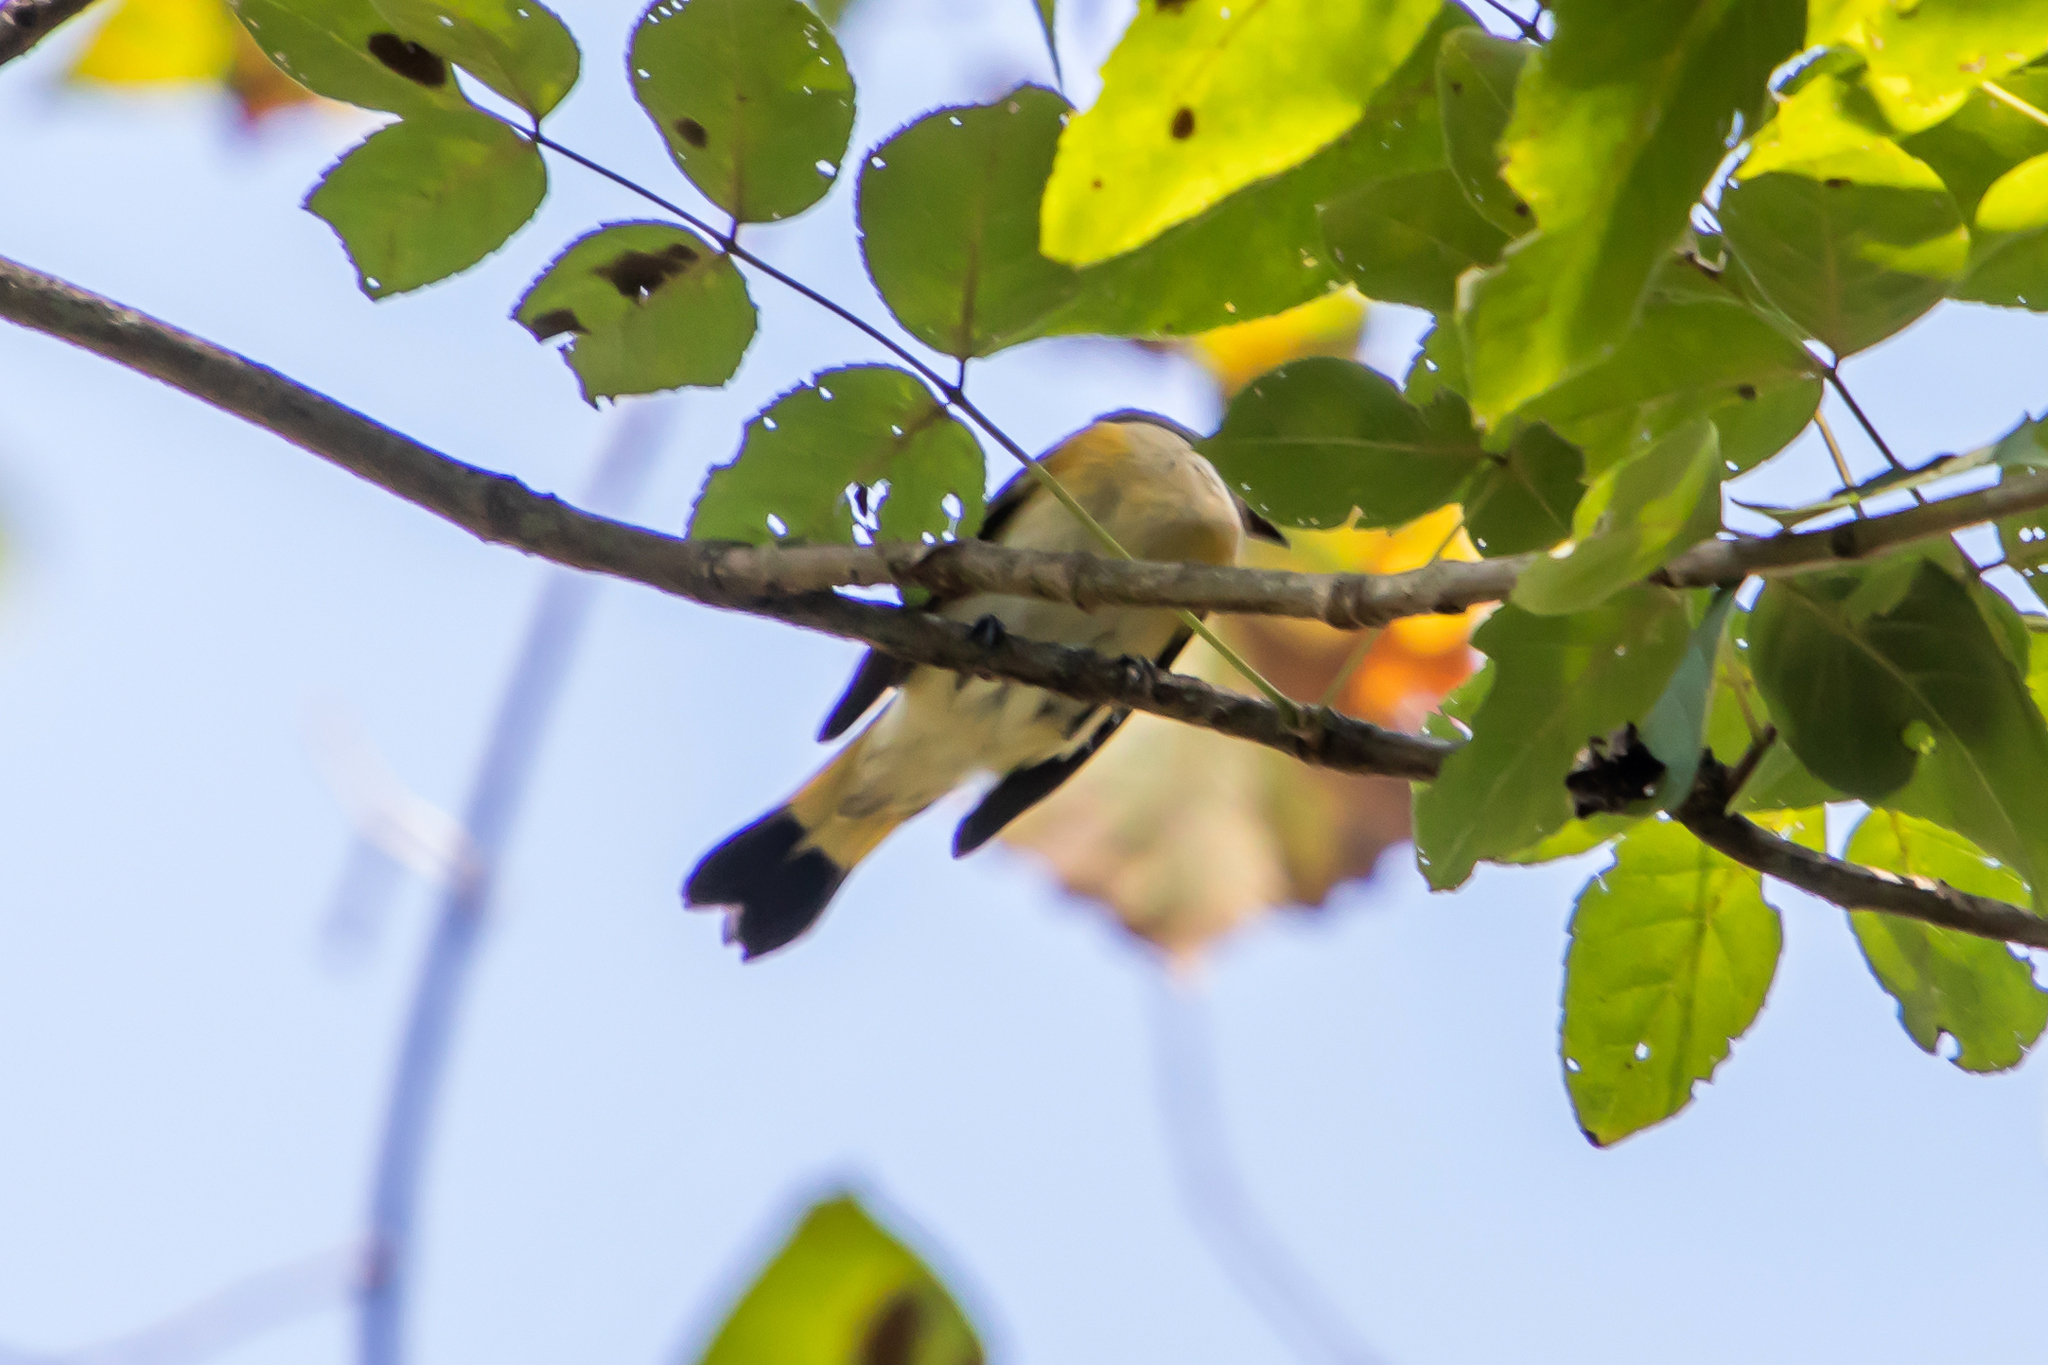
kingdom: Animalia
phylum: Chordata
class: Aves
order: Passeriformes
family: Parulidae
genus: Setophaga
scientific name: Setophaga ruticilla
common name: American redstart
